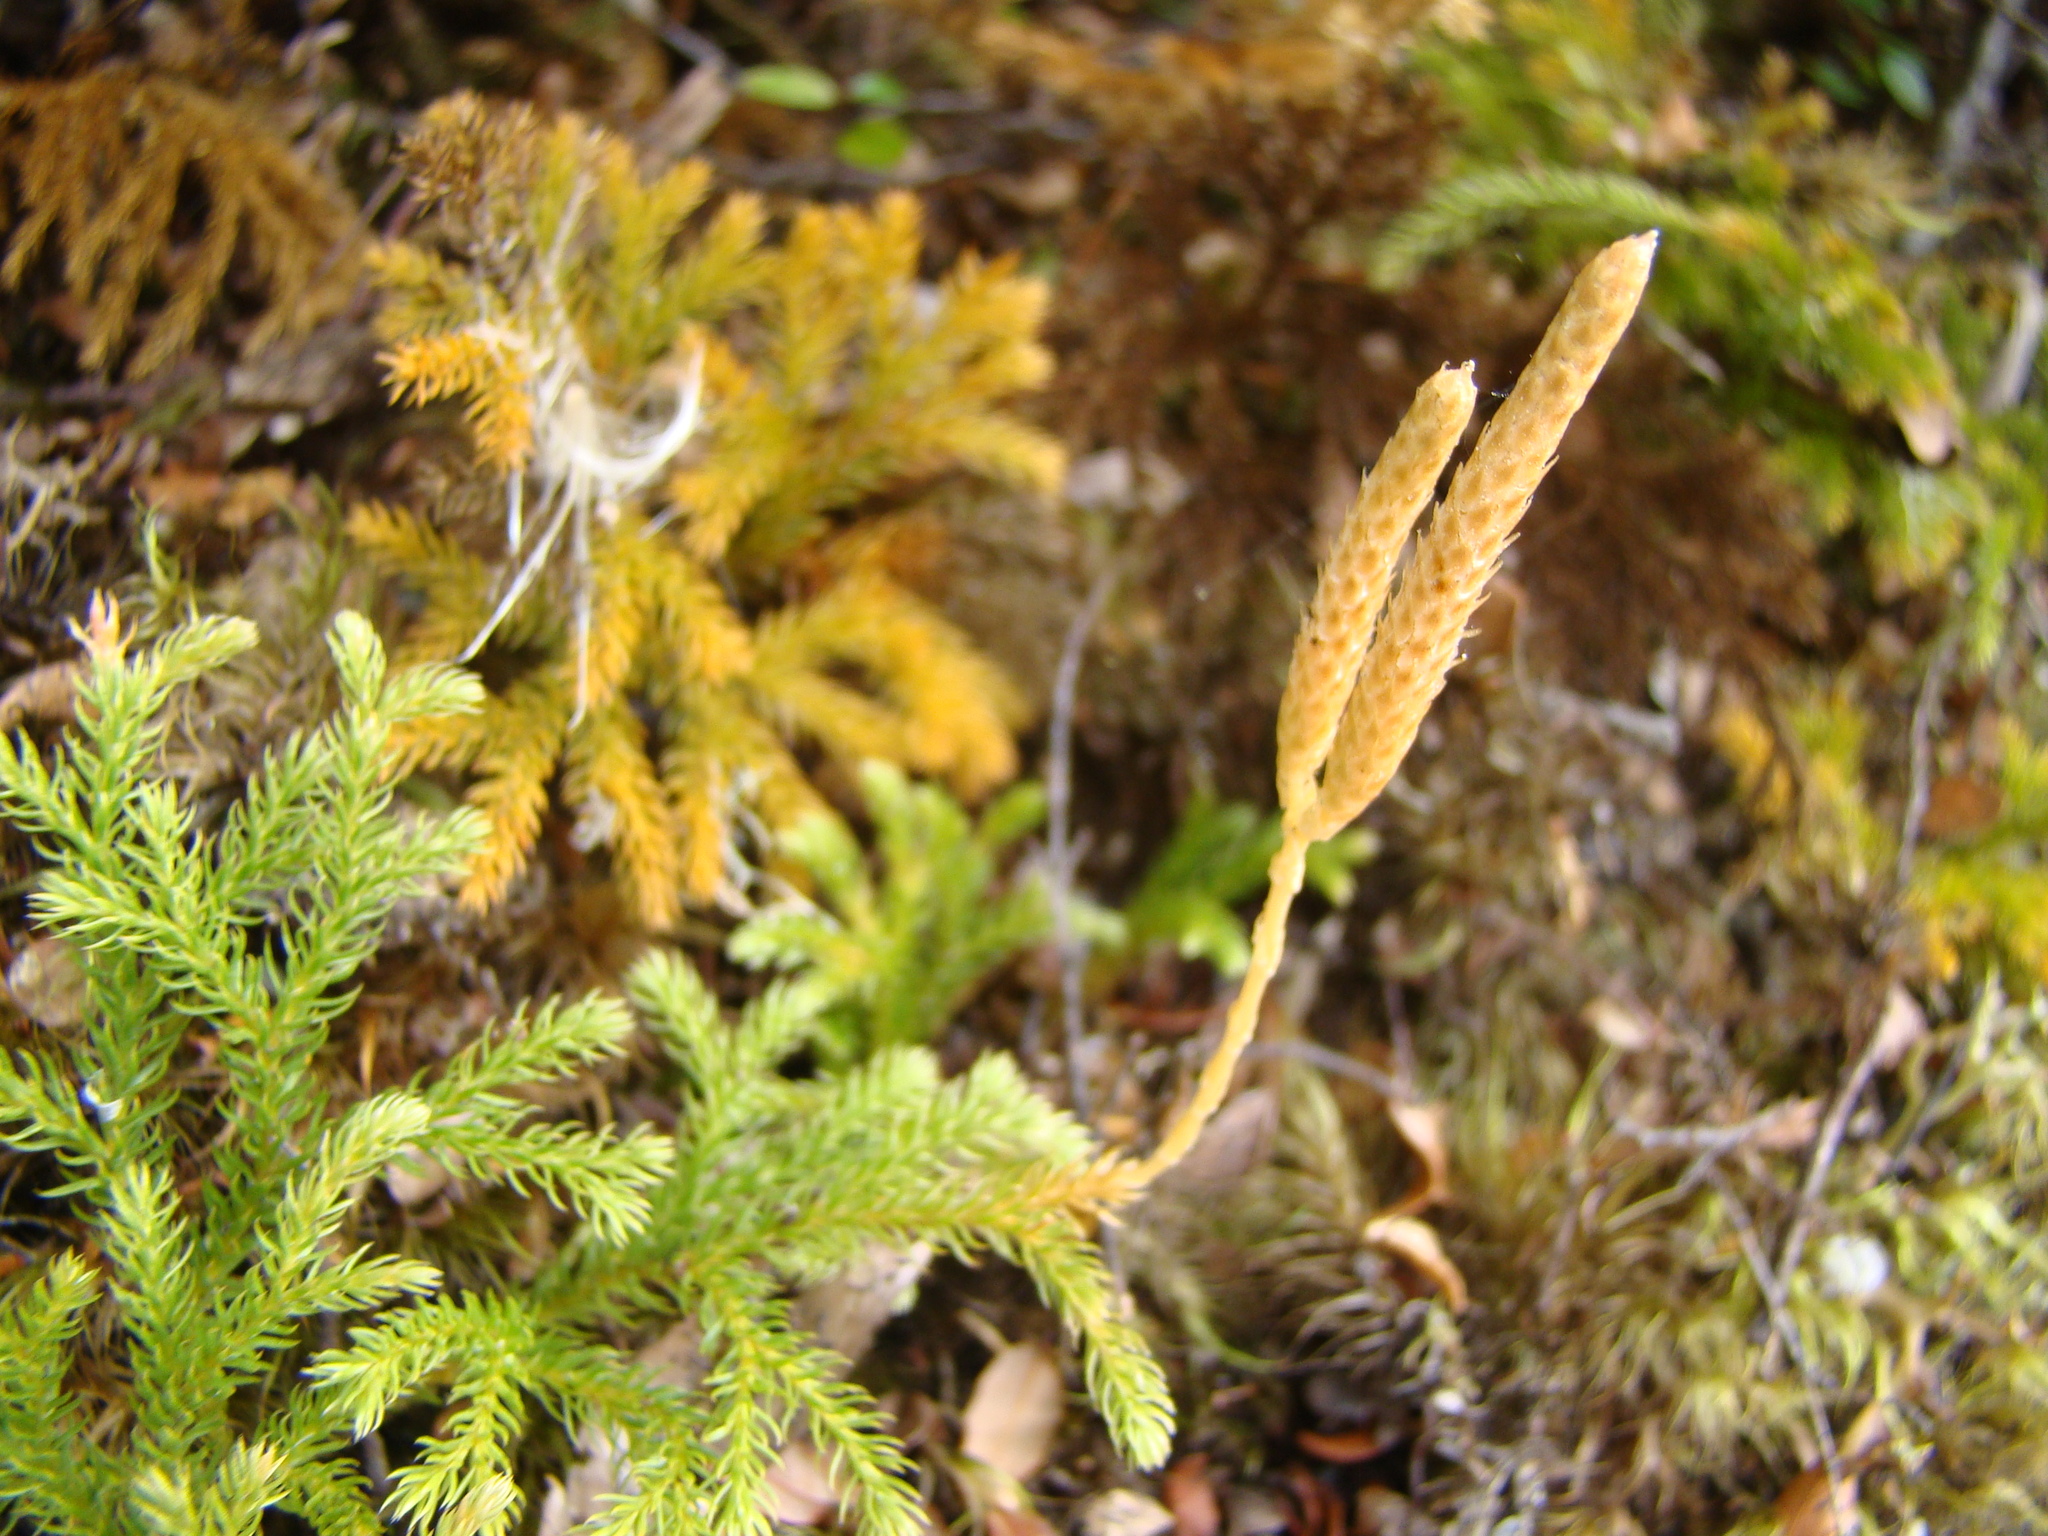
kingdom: Plantae
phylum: Tracheophyta
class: Lycopodiopsida
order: Lycopodiales
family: Lycopodiaceae
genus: Austrolycopodium
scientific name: Austrolycopodium fastigiatum
